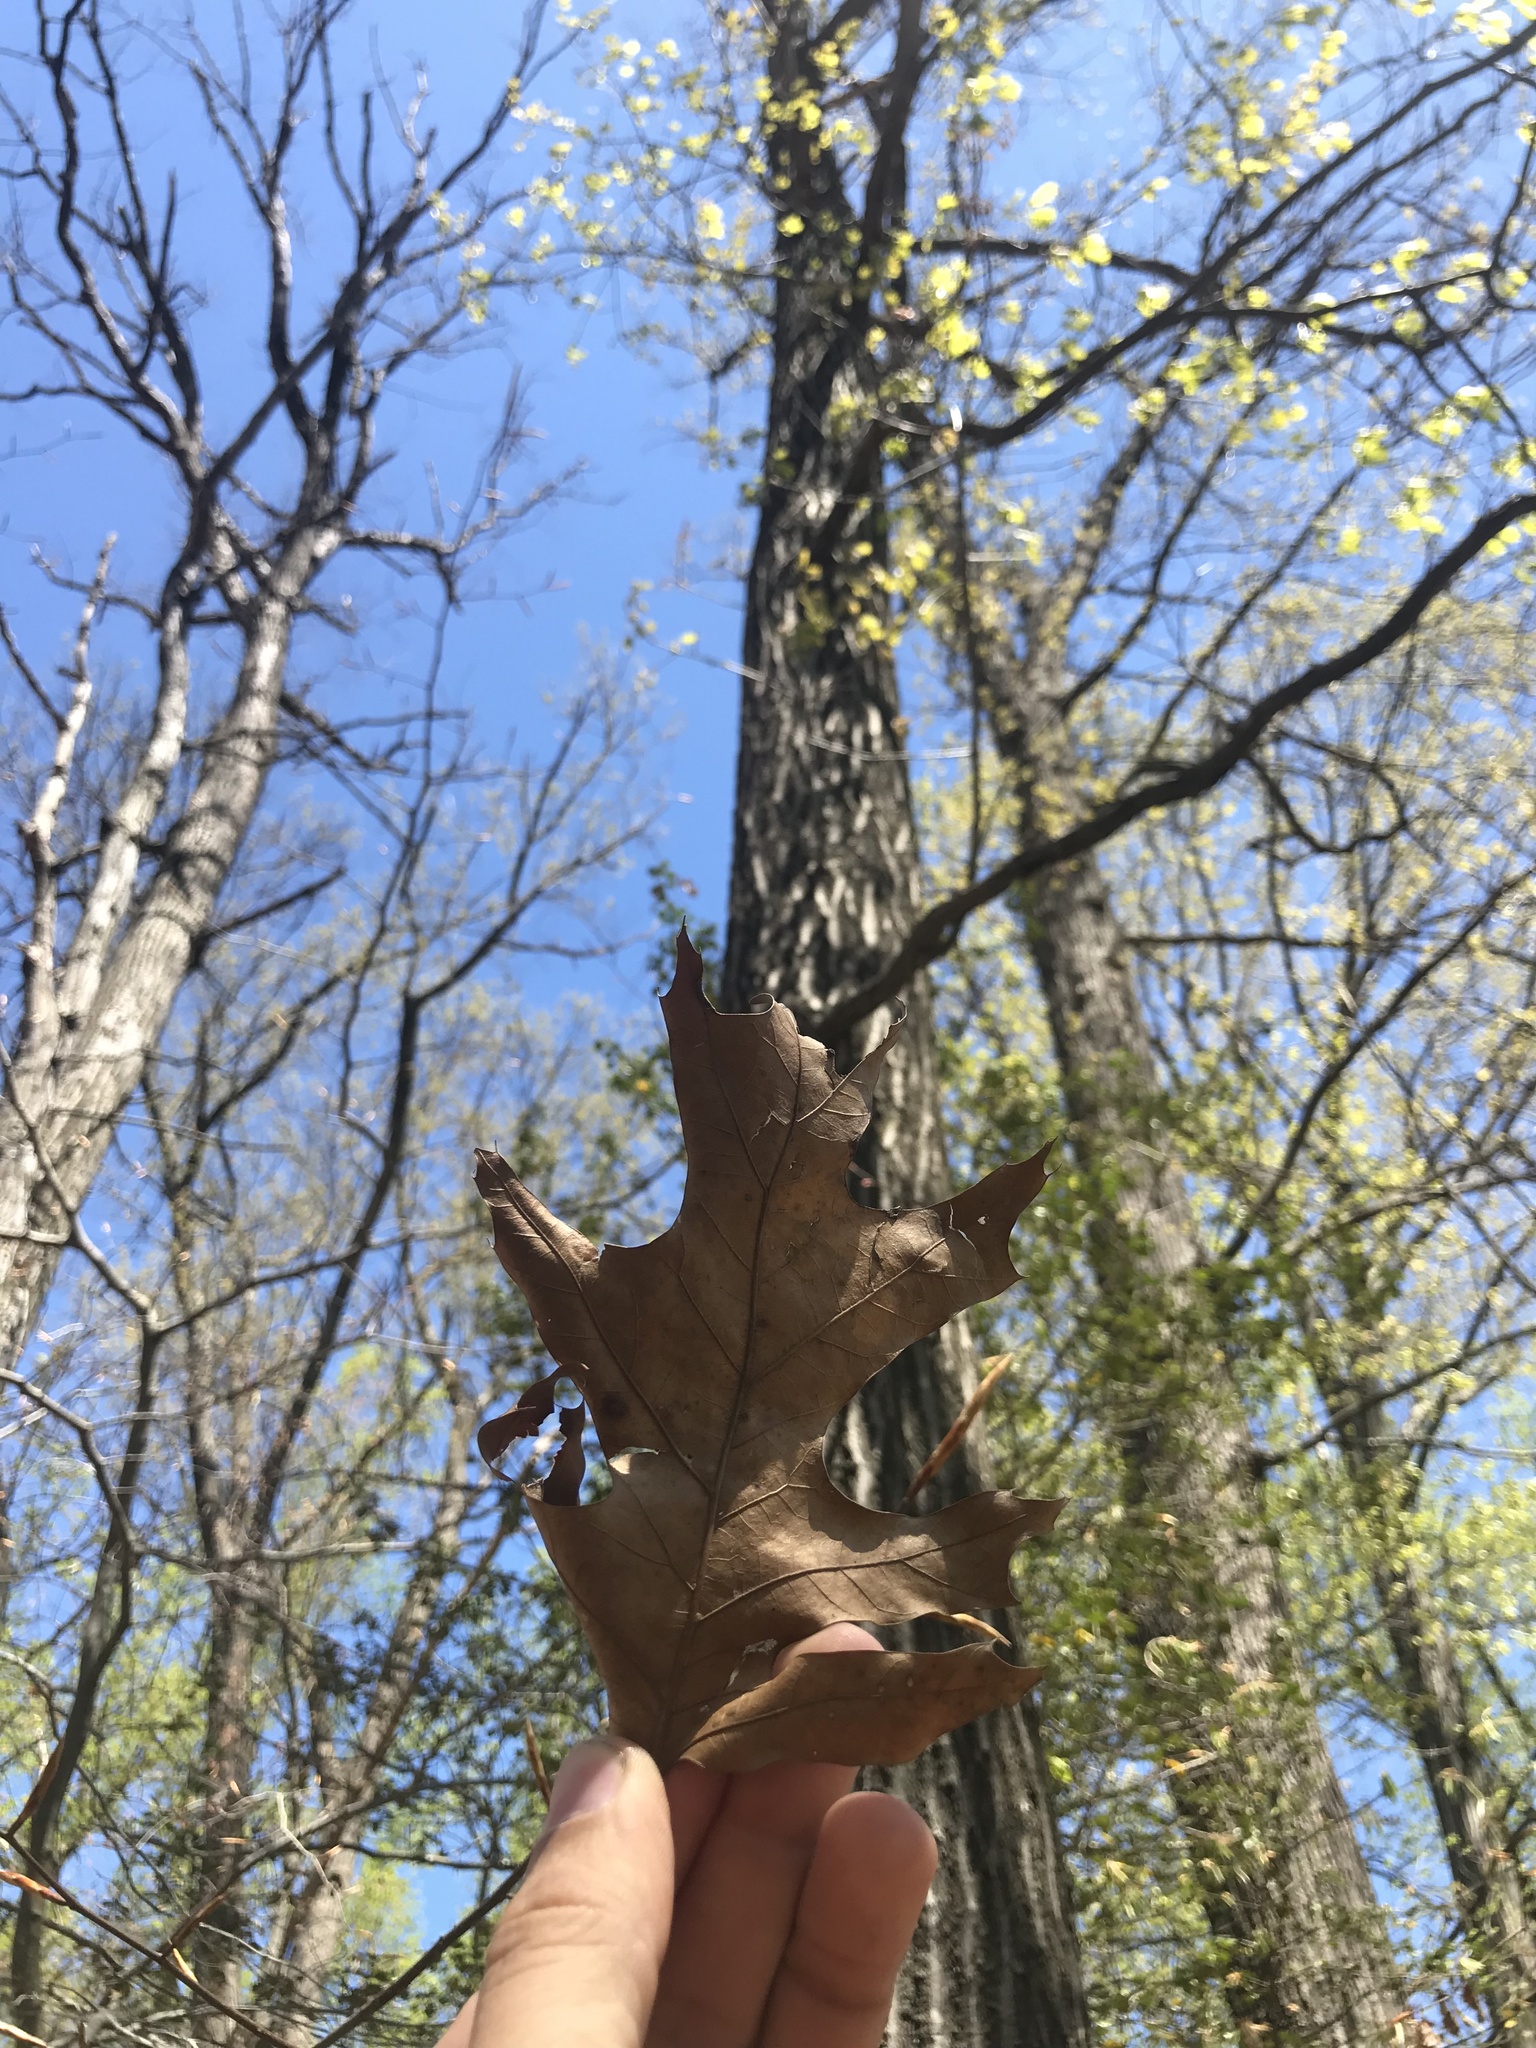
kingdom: Plantae
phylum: Tracheophyta
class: Magnoliopsida
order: Fagales
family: Fagaceae
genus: Quercus
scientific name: Quercus rubra
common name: Red oak
